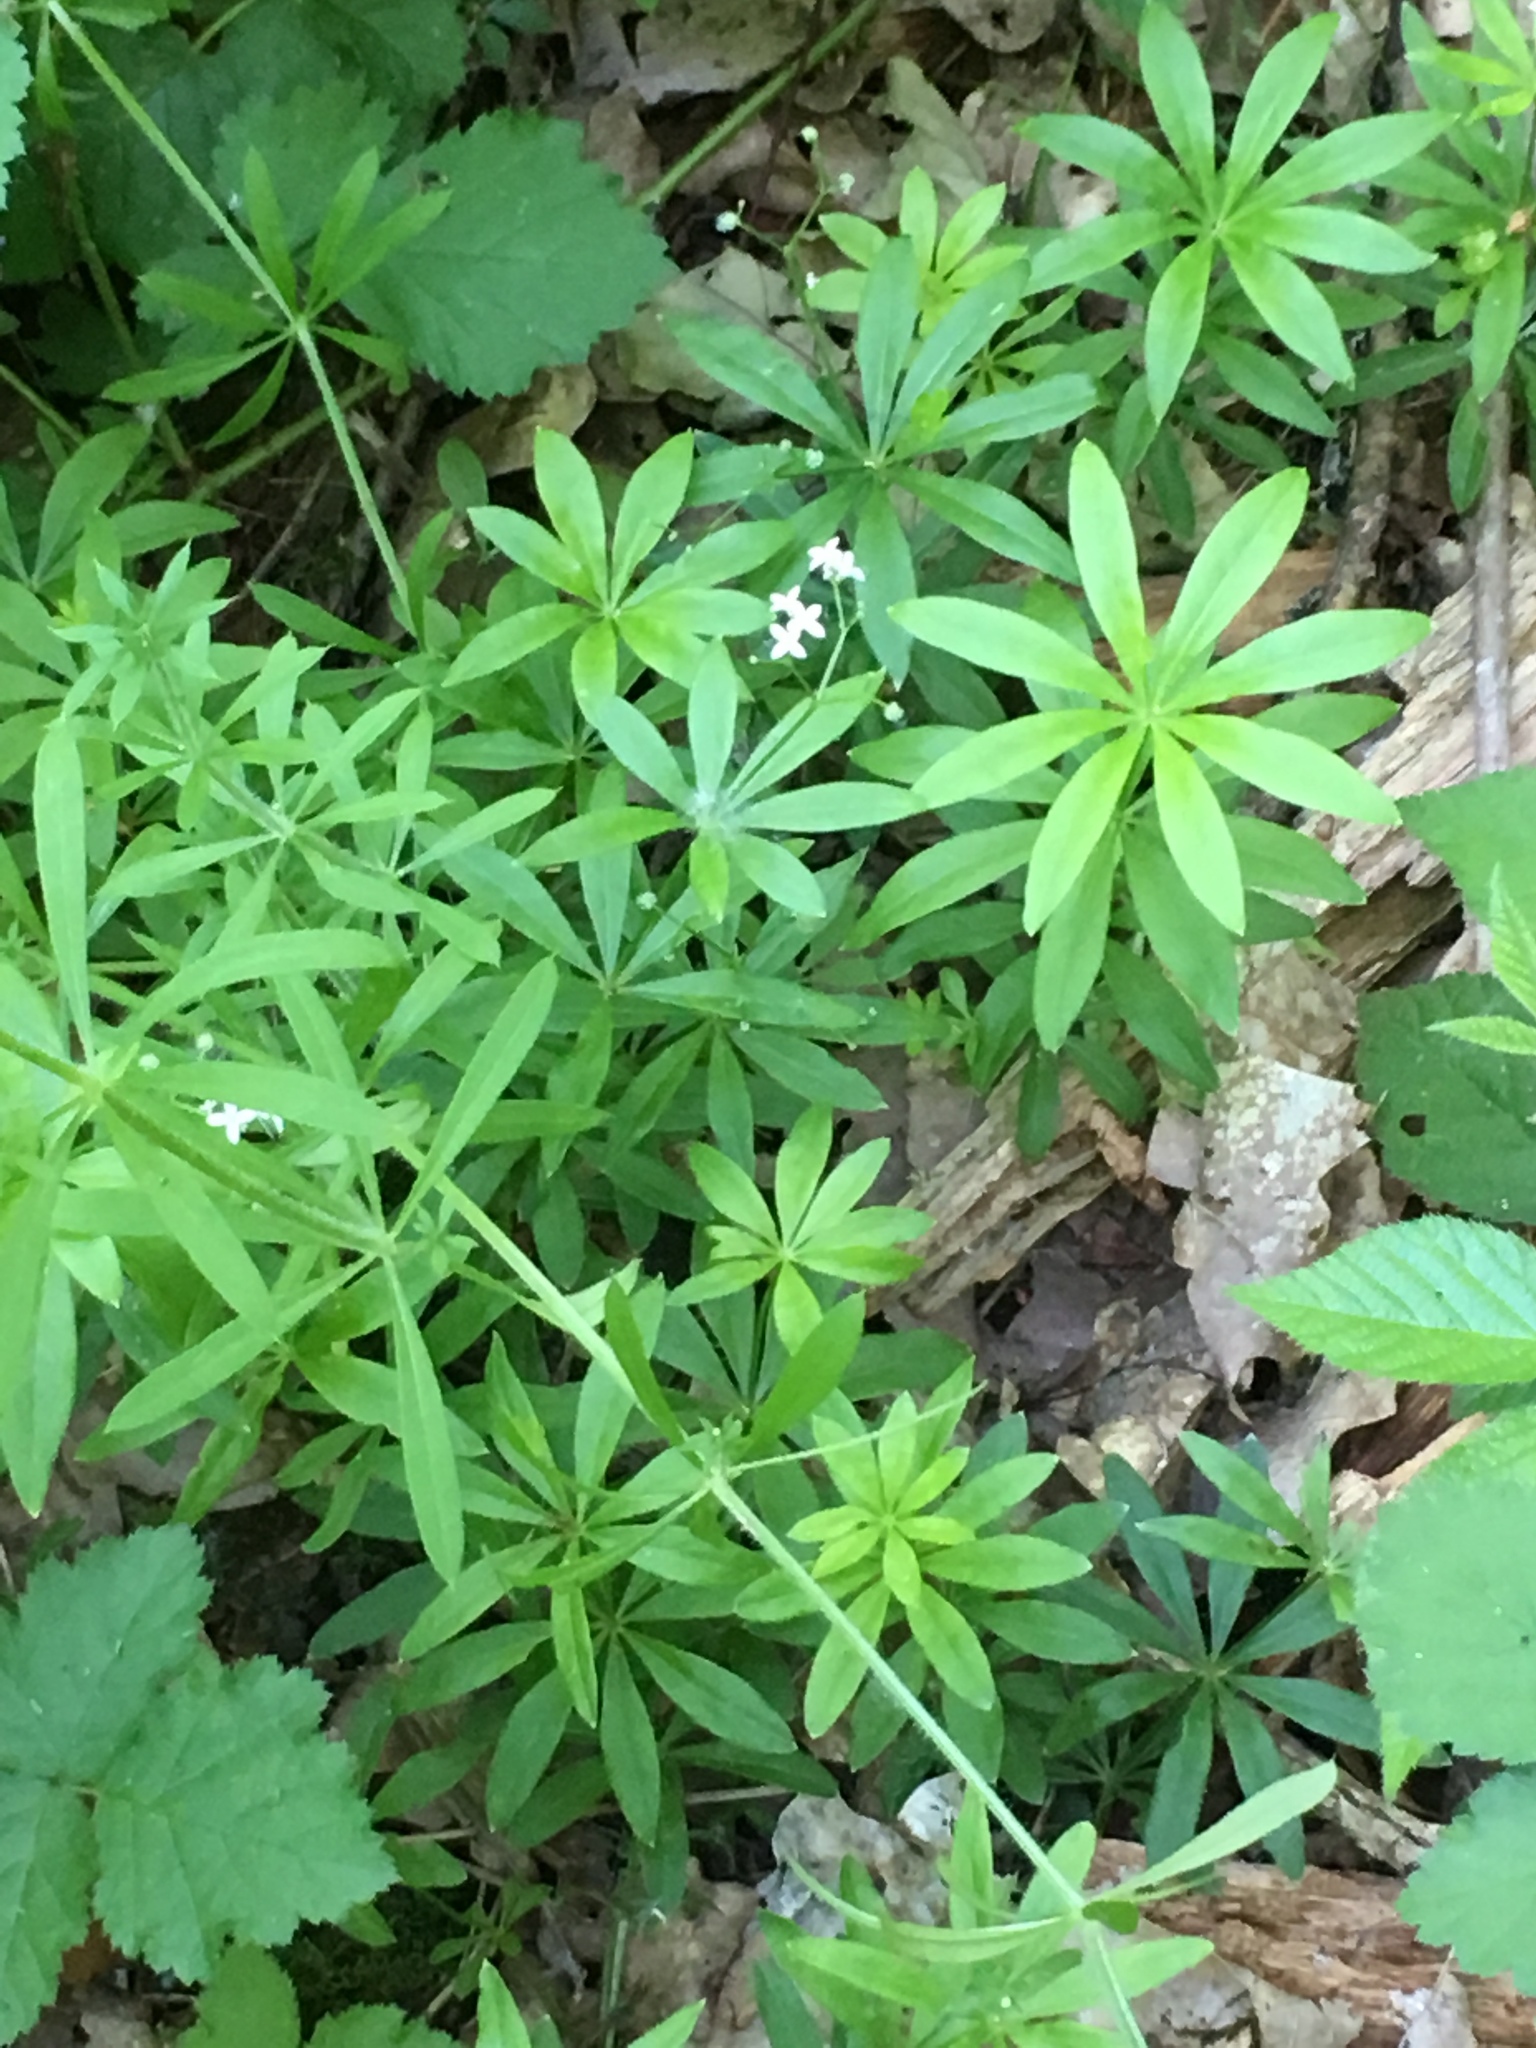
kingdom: Plantae
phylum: Tracheophyta
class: Magnoliopsida
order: Gentianales
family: Rubiaceae
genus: Galium
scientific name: Galium odoratum
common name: Sweet woodruff
